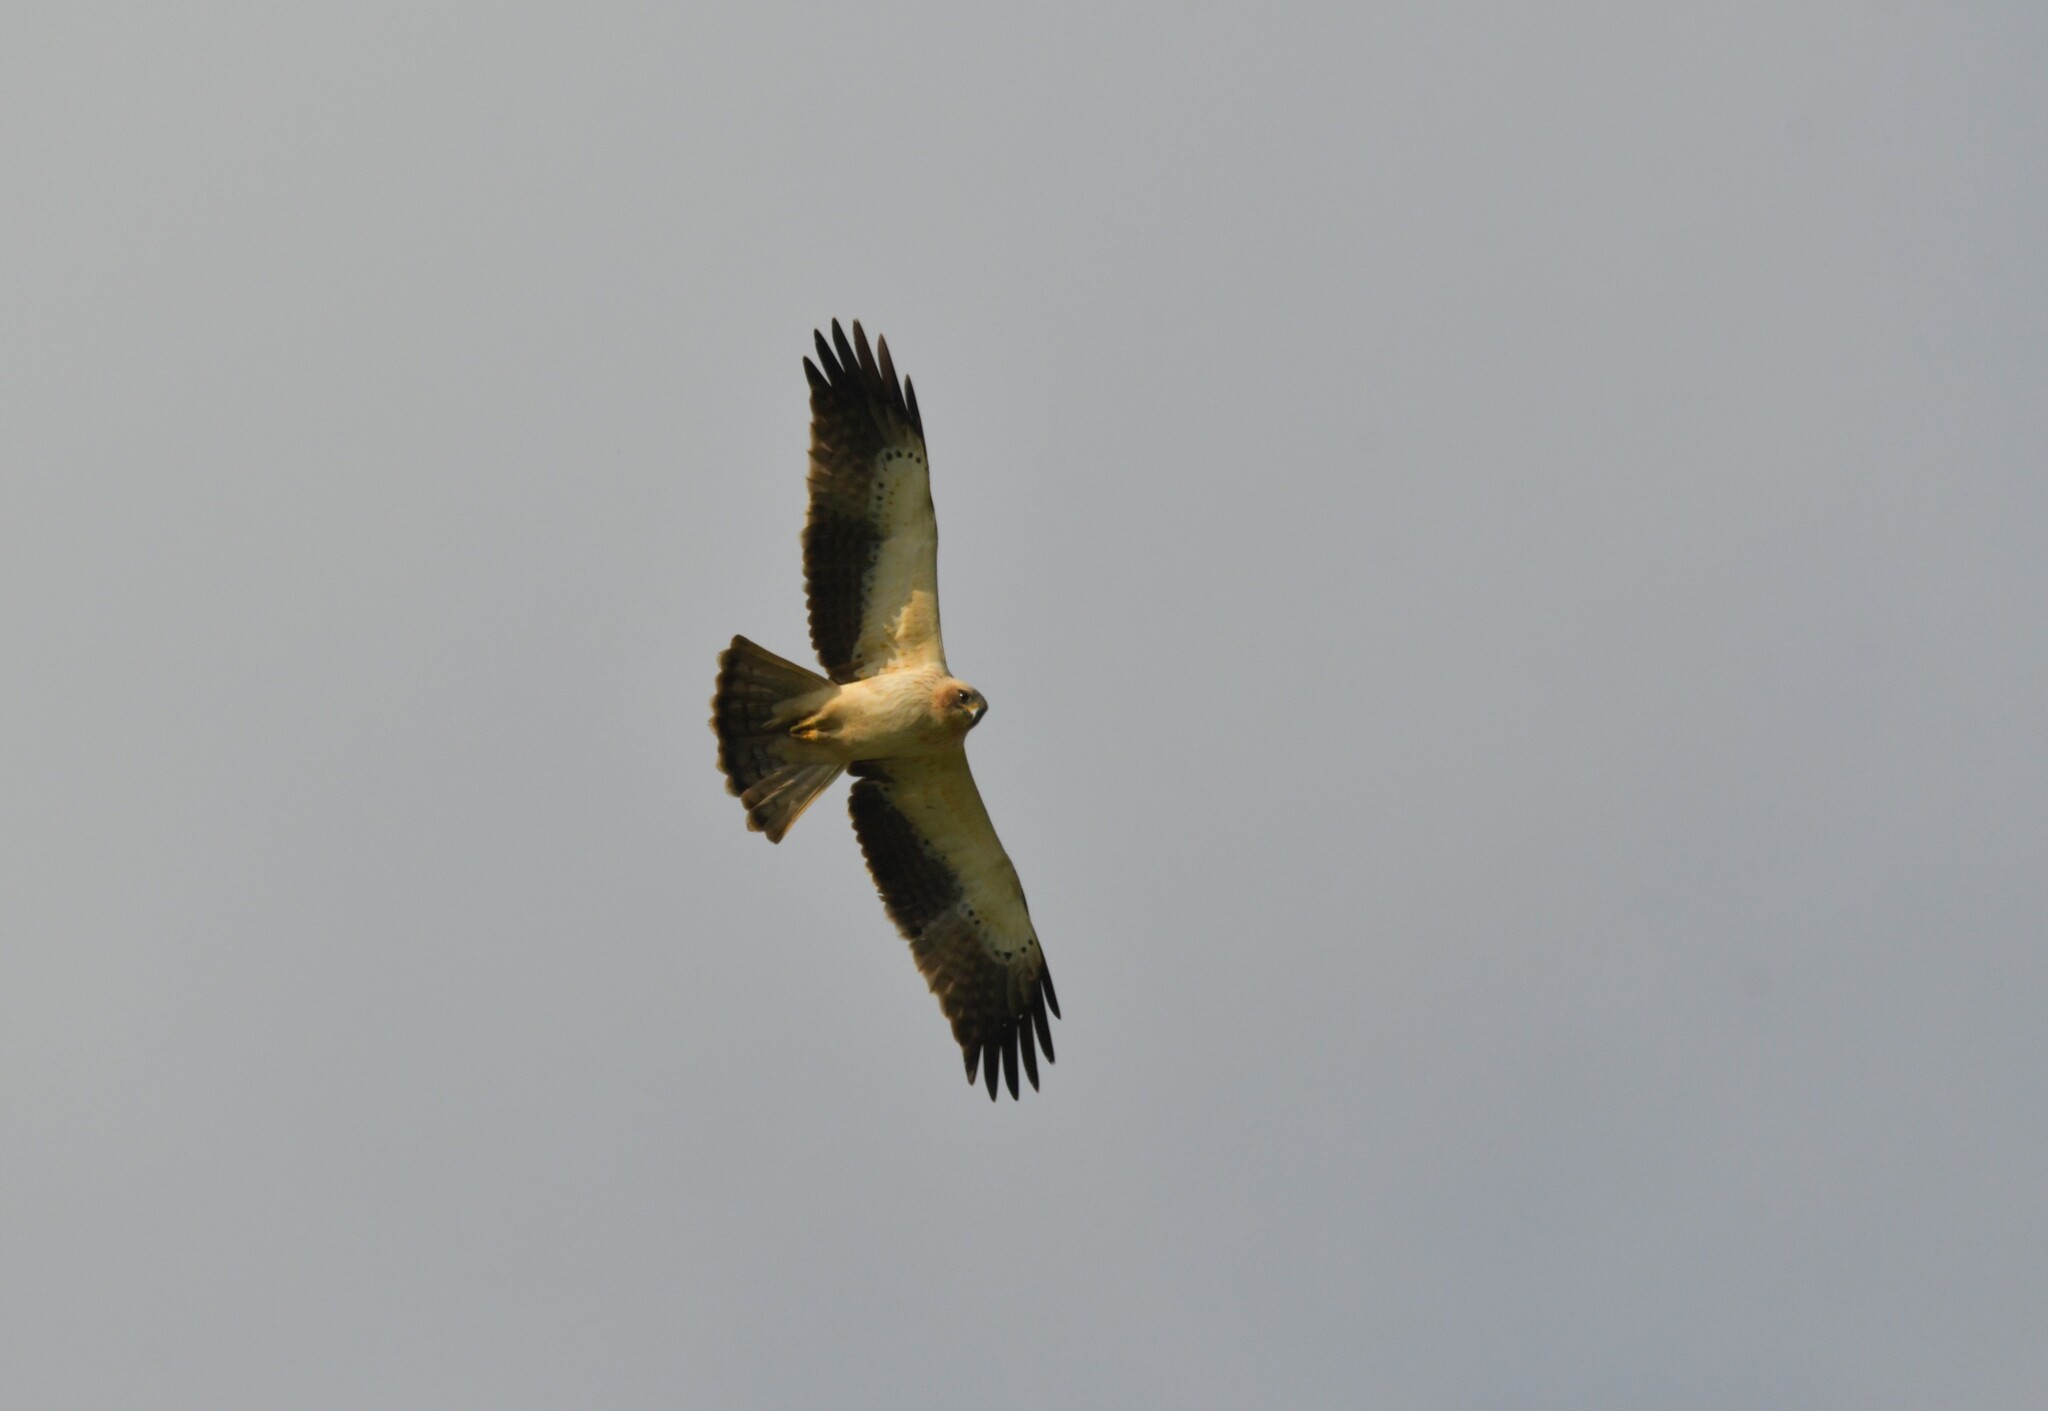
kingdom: Animalia
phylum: Chordata
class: Aves
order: Accipitriformes
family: Accipitridae
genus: Hieraaetus
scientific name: Hieraaetus pennatus
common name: Booted eagle
